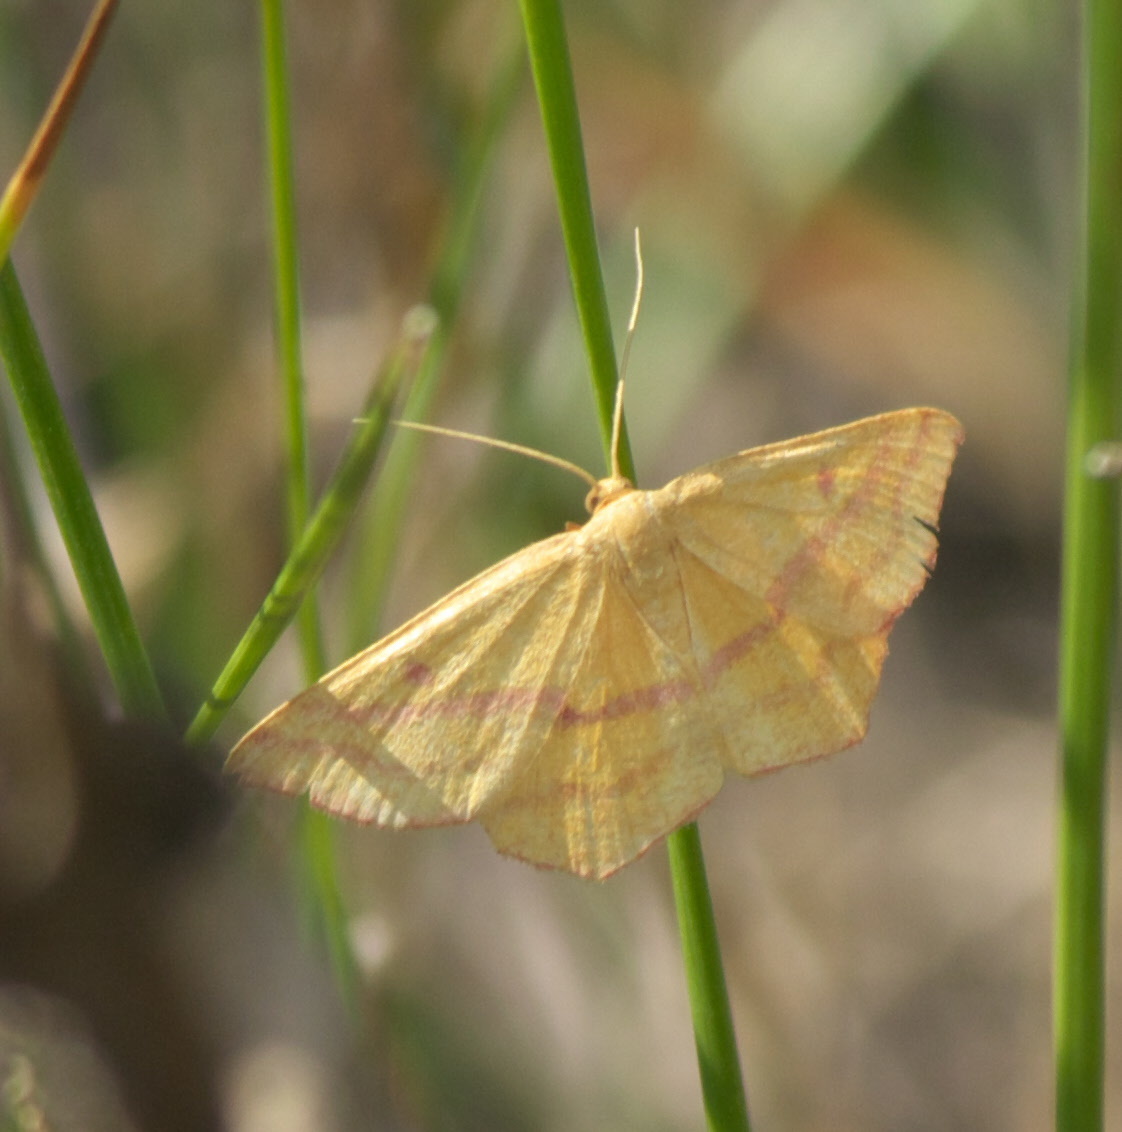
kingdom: Animalia
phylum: Arthropoda
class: Insecta
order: Lepidoptera
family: Geometridae
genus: Haematopis
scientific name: Haematopis grataria
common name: Chickweed geometer
